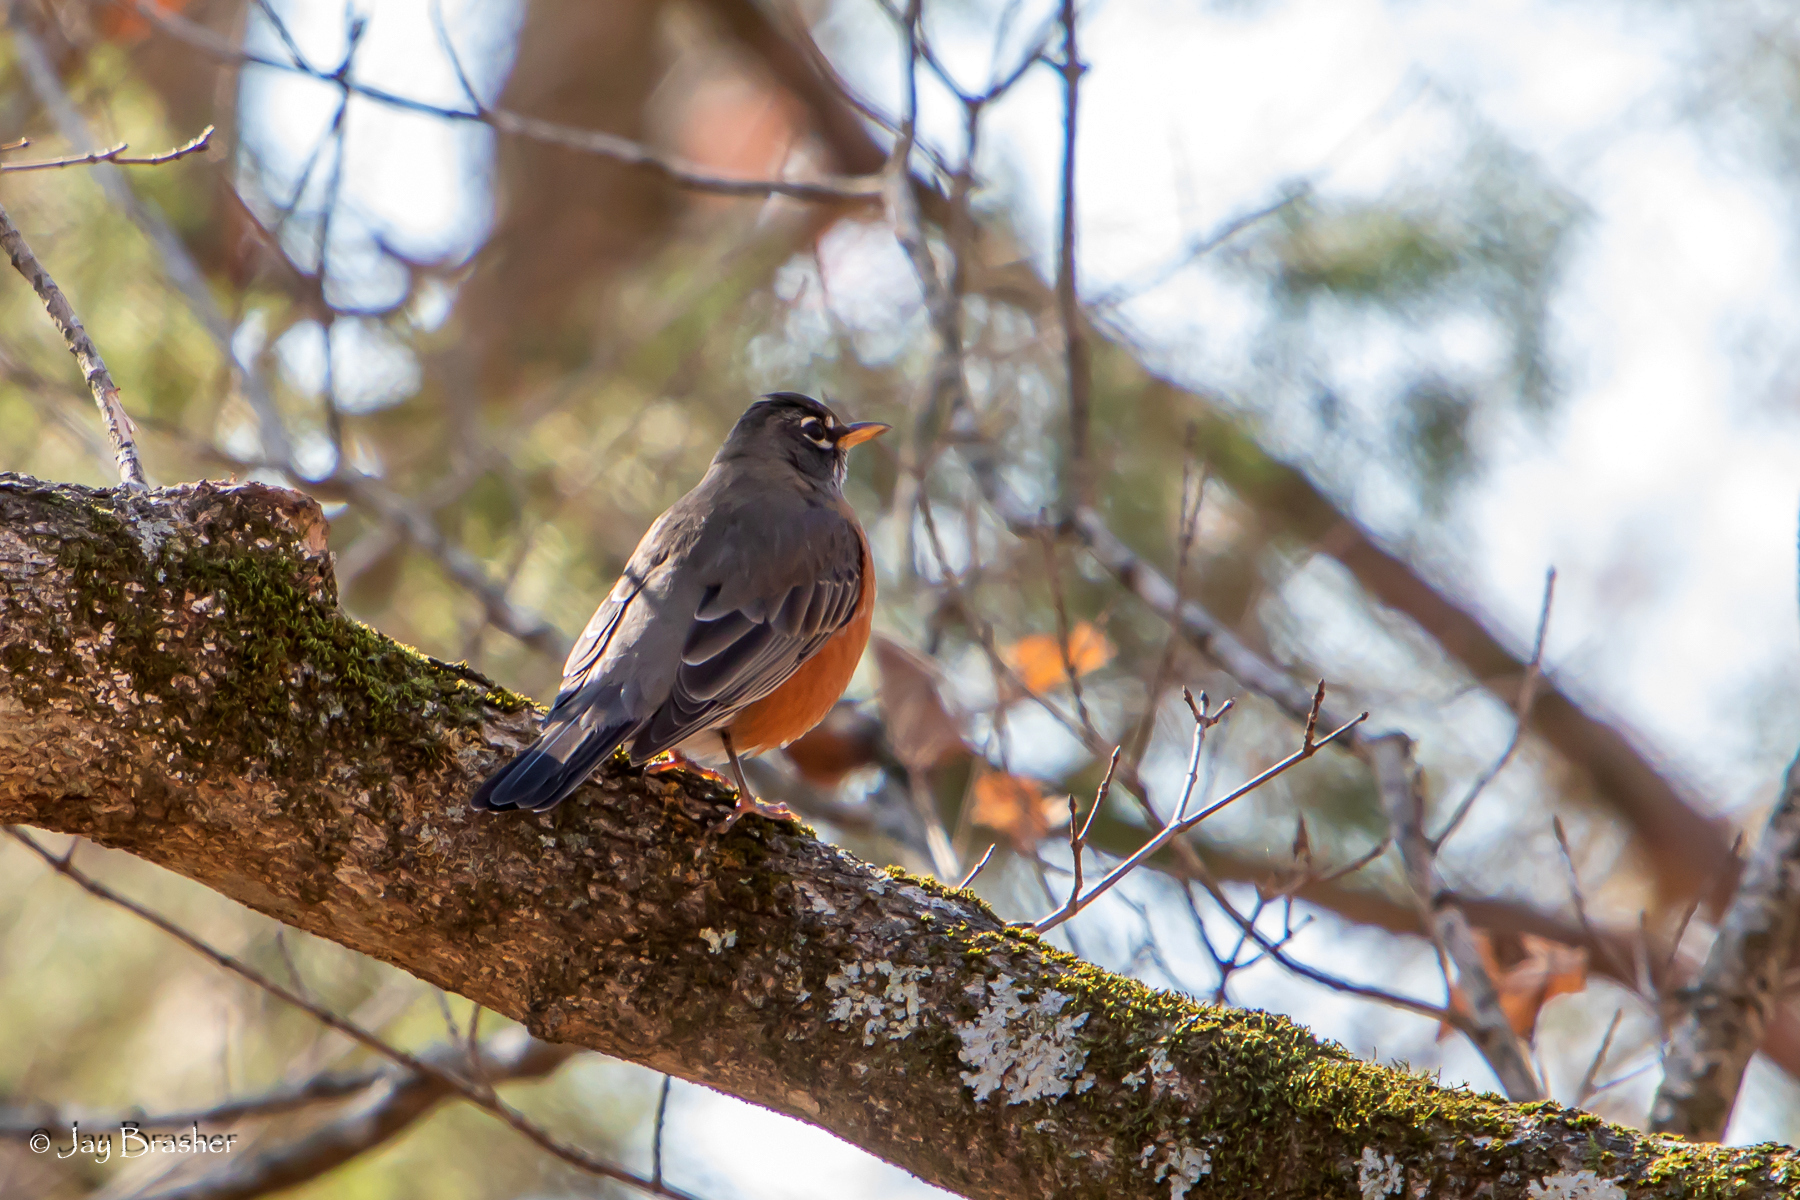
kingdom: Animalia
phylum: Chordata
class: Aves
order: Passeriformes
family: Turdidae
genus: Turdus
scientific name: Turdus migratorius
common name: American robin
